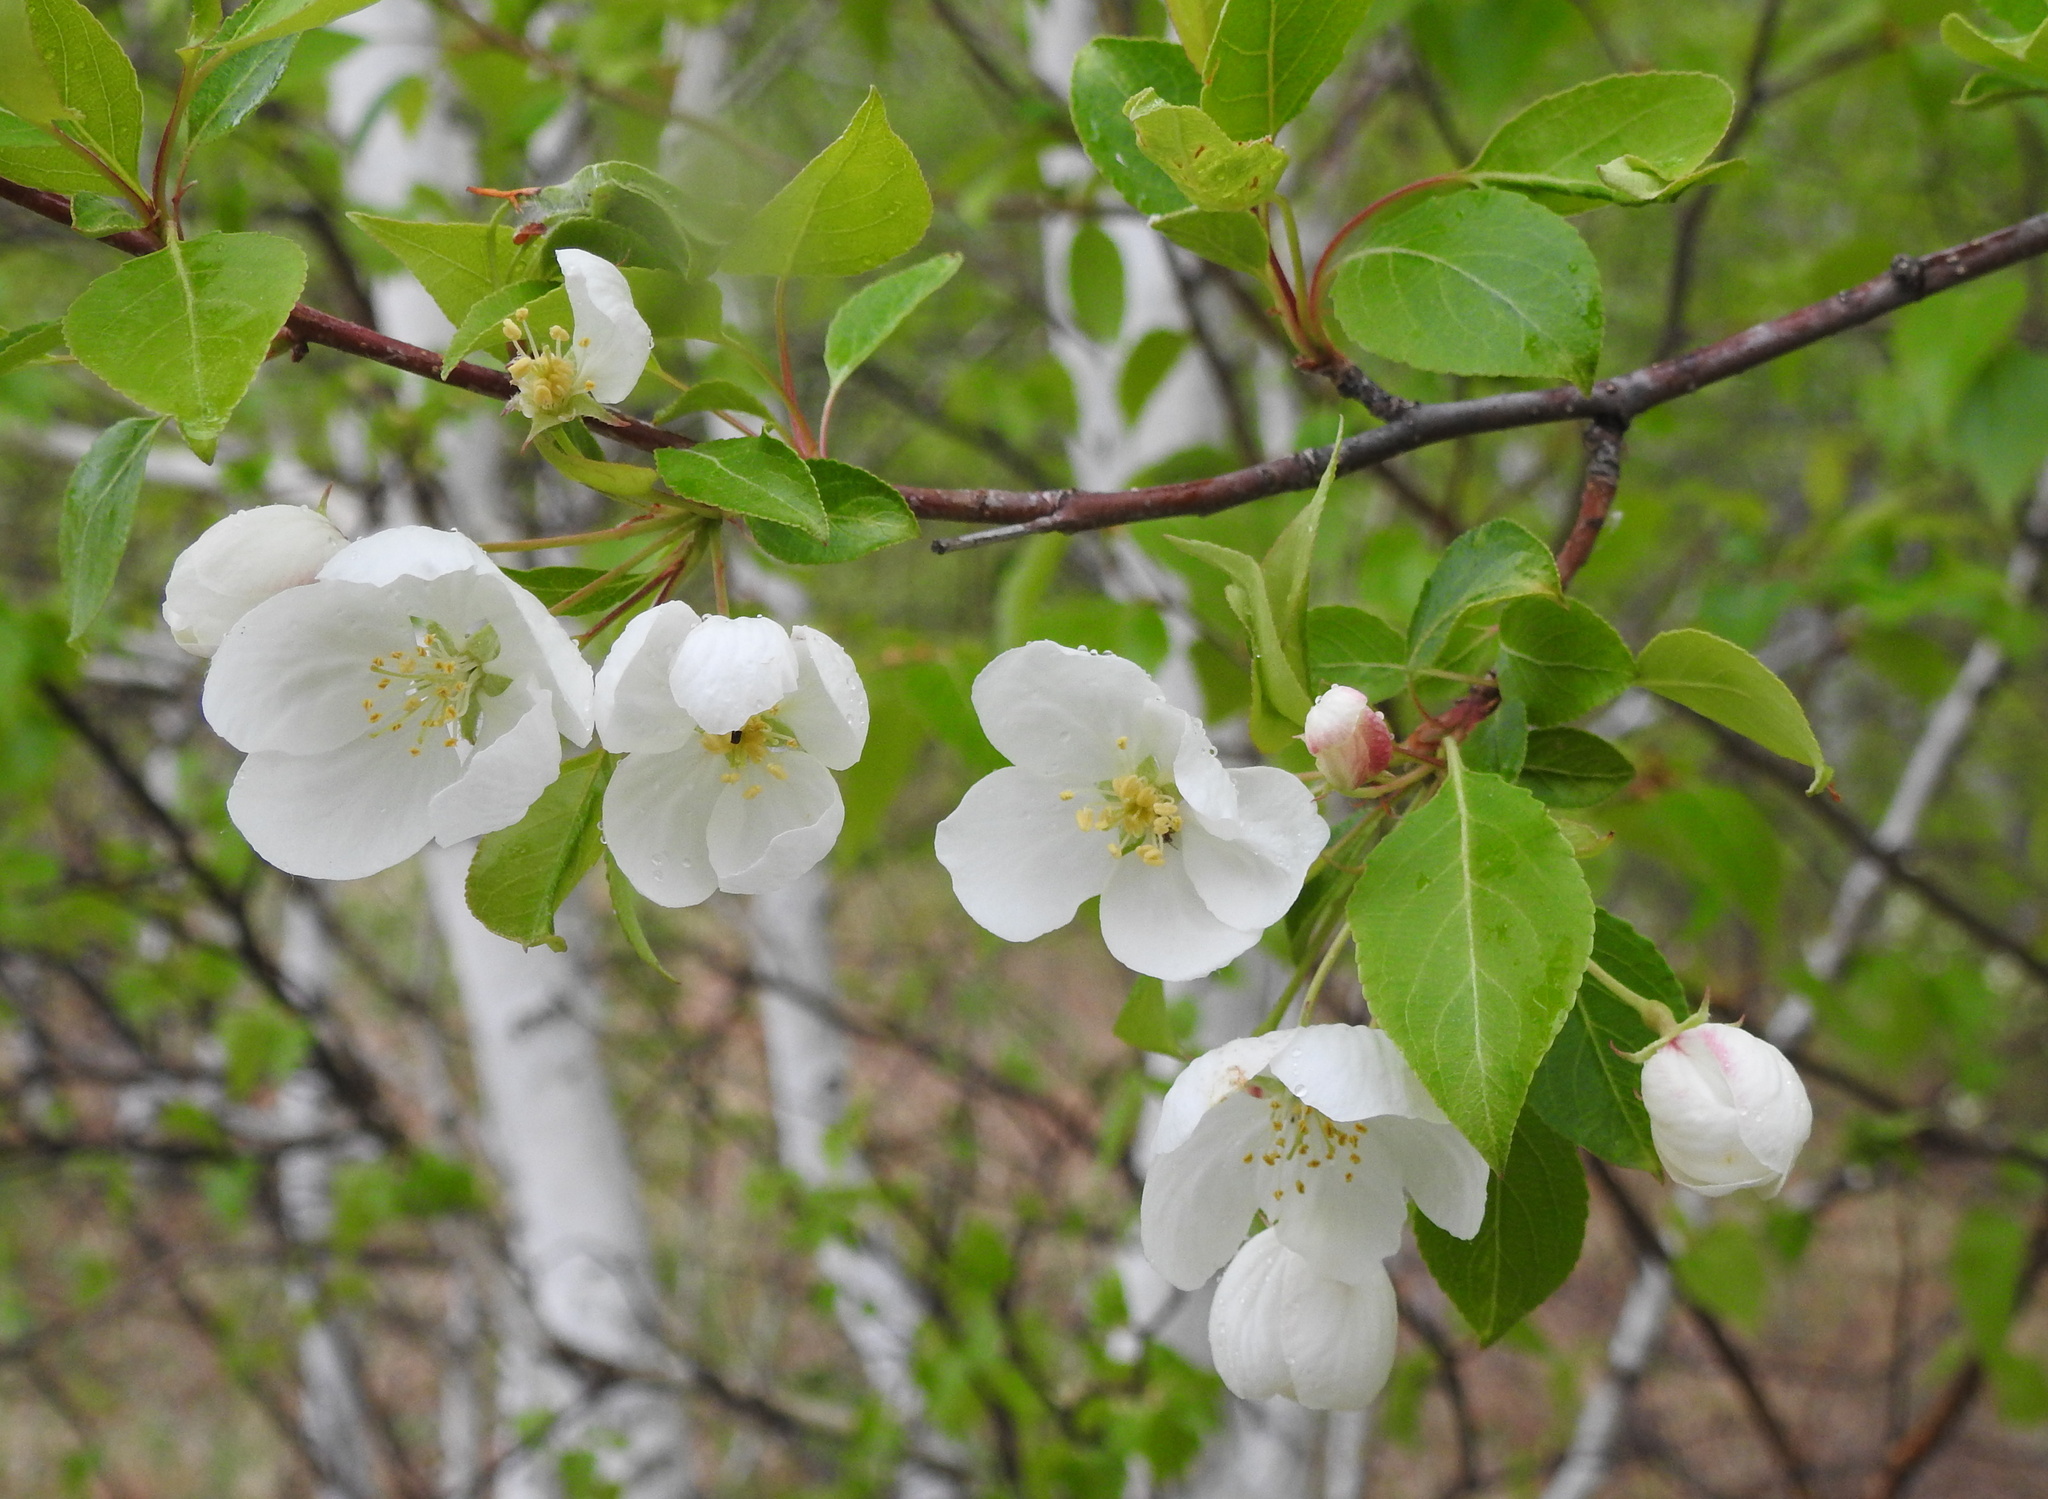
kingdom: Plantae
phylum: Tracheophyta
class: Magnoliopsida
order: Rosales
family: Rosaceae
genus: Malus
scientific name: Malus baccata
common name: Siberian crab
